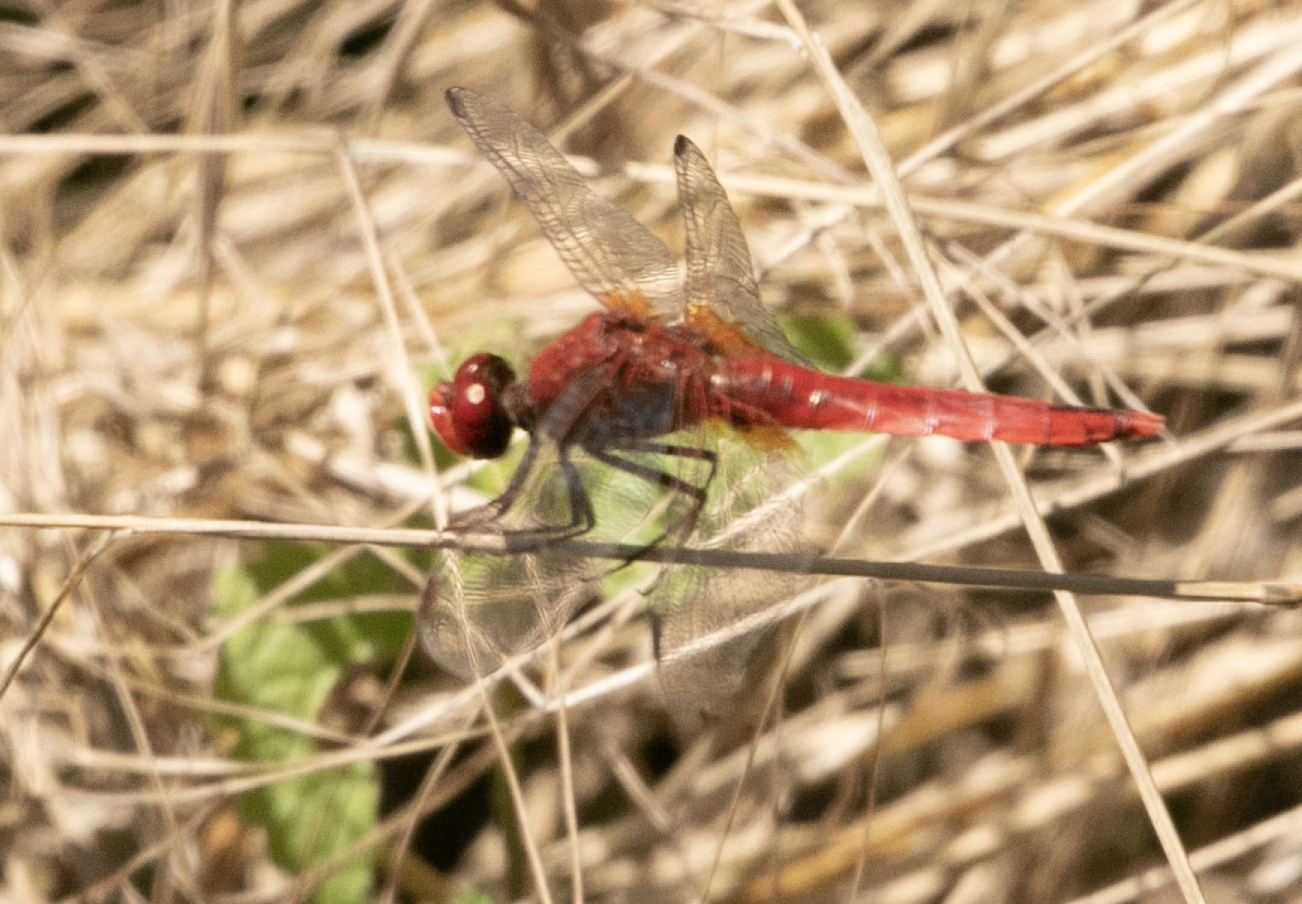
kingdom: Animalia
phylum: Arthropoda
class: Insecta
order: Odonata
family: Libellulidae
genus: Crocothemis
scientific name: Crocothemis erythraea
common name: Scarlet dragonfly
